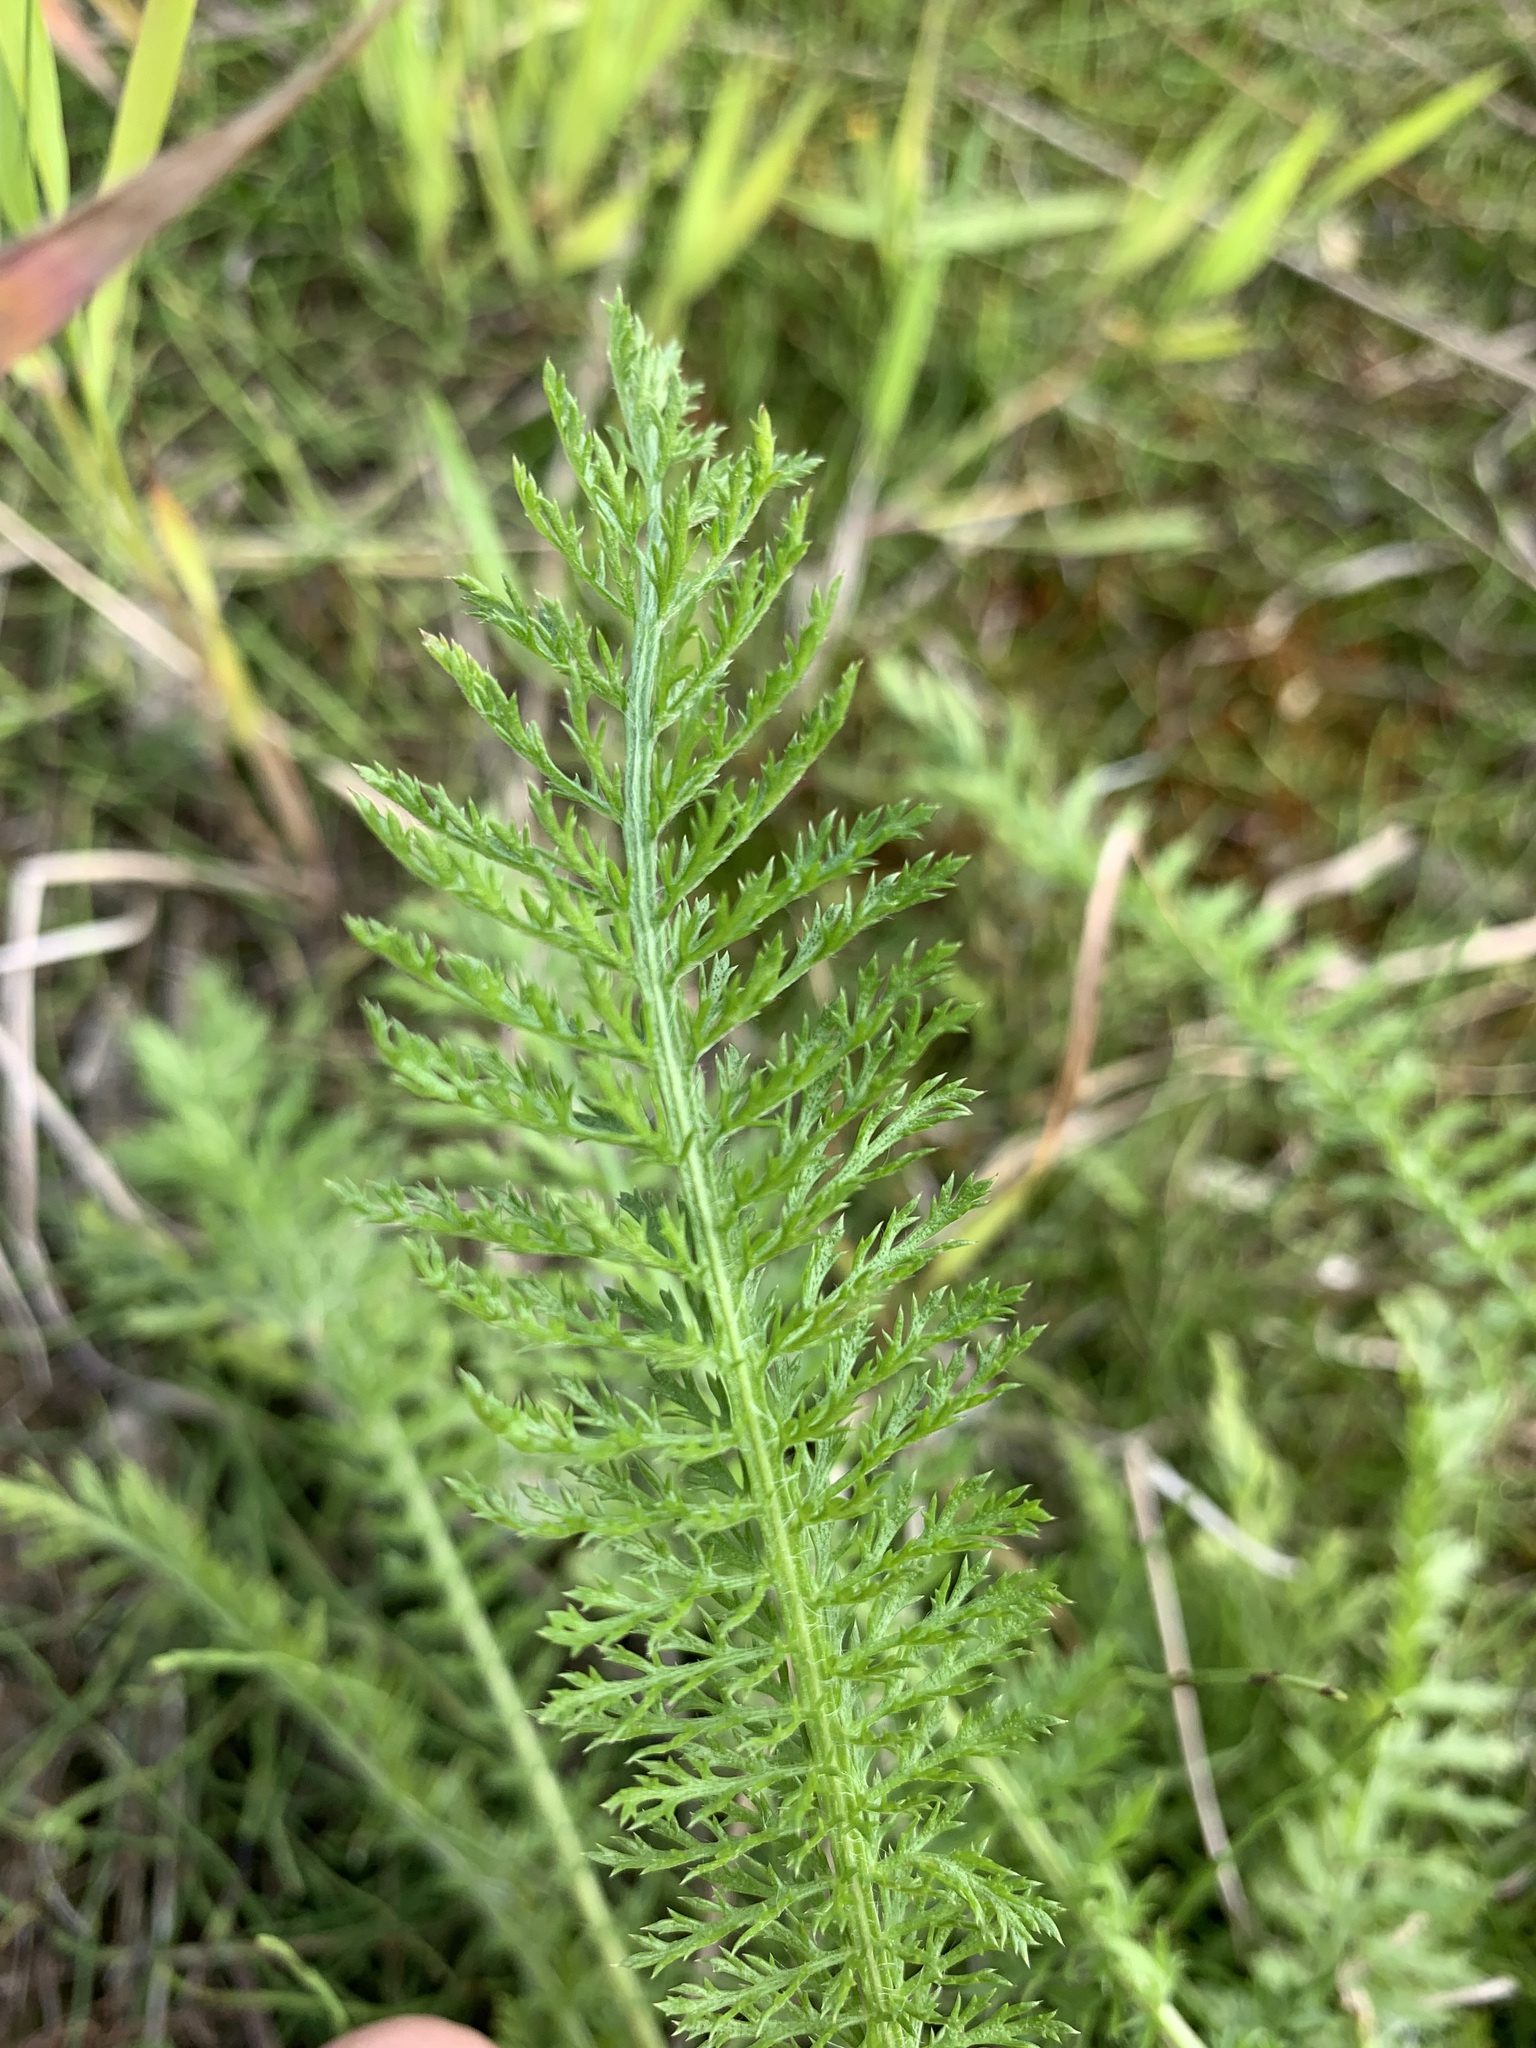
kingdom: Plantae
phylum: Tracheophyta
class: Magnoliopsida
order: Asterales
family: Asteraceae
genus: Achillea
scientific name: Achillea millefolium
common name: Yarrow
